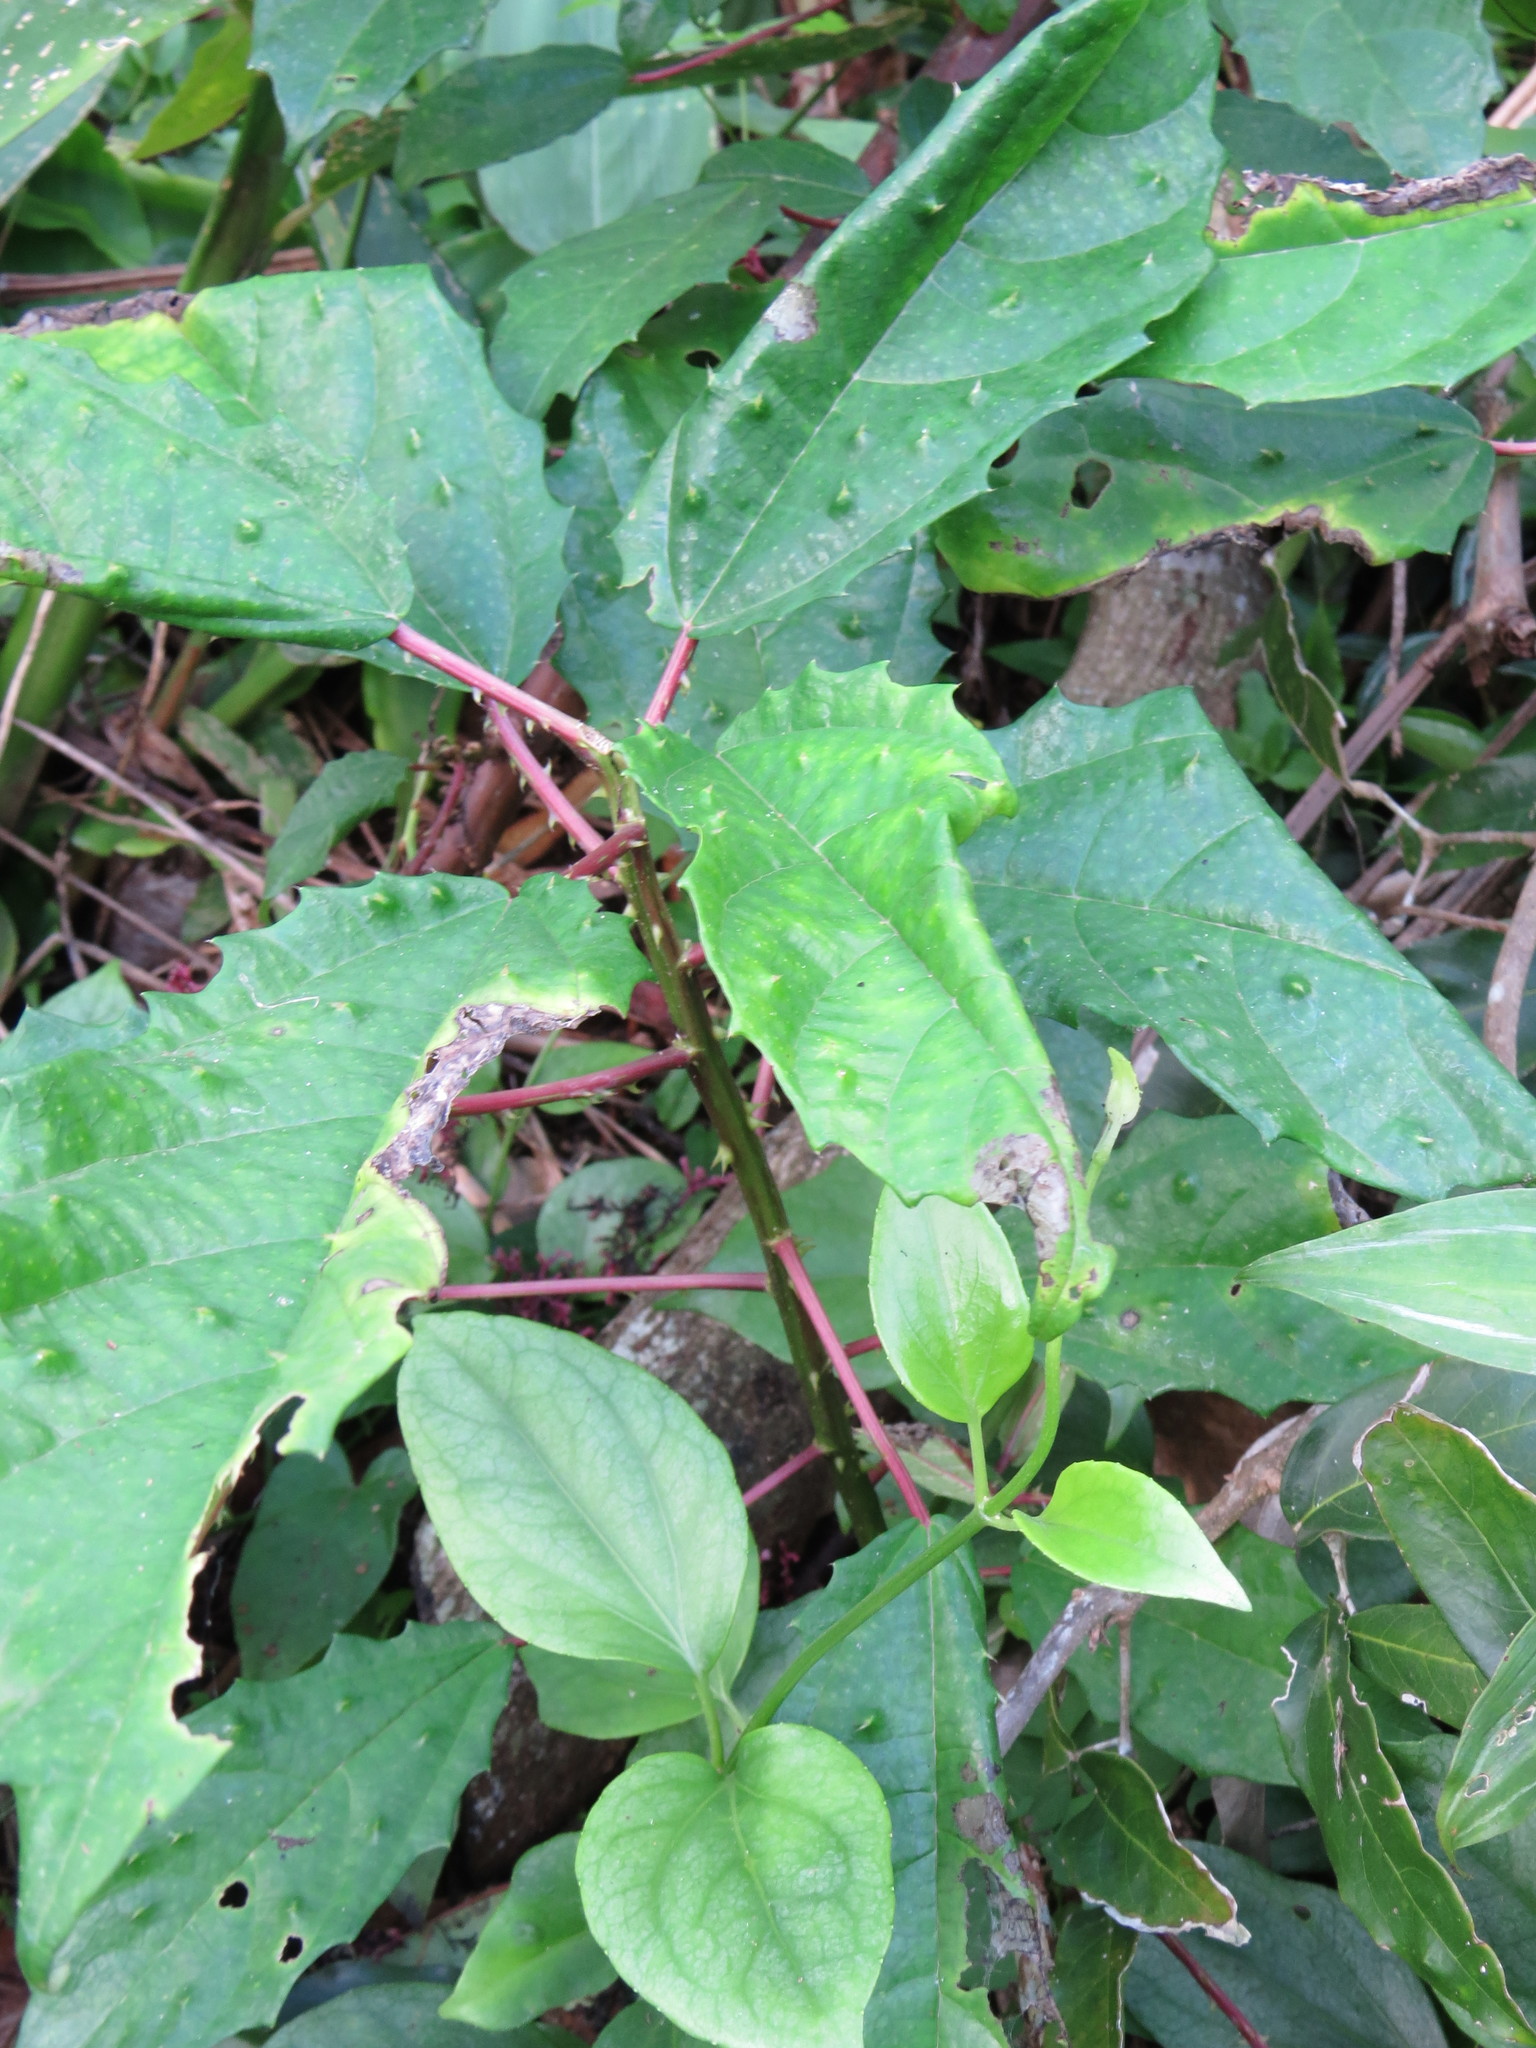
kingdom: Plantae
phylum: Tracheophyta
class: Magnoliopsida
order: Rosales
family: Urticaceae
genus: Urera
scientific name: Urera nitida
